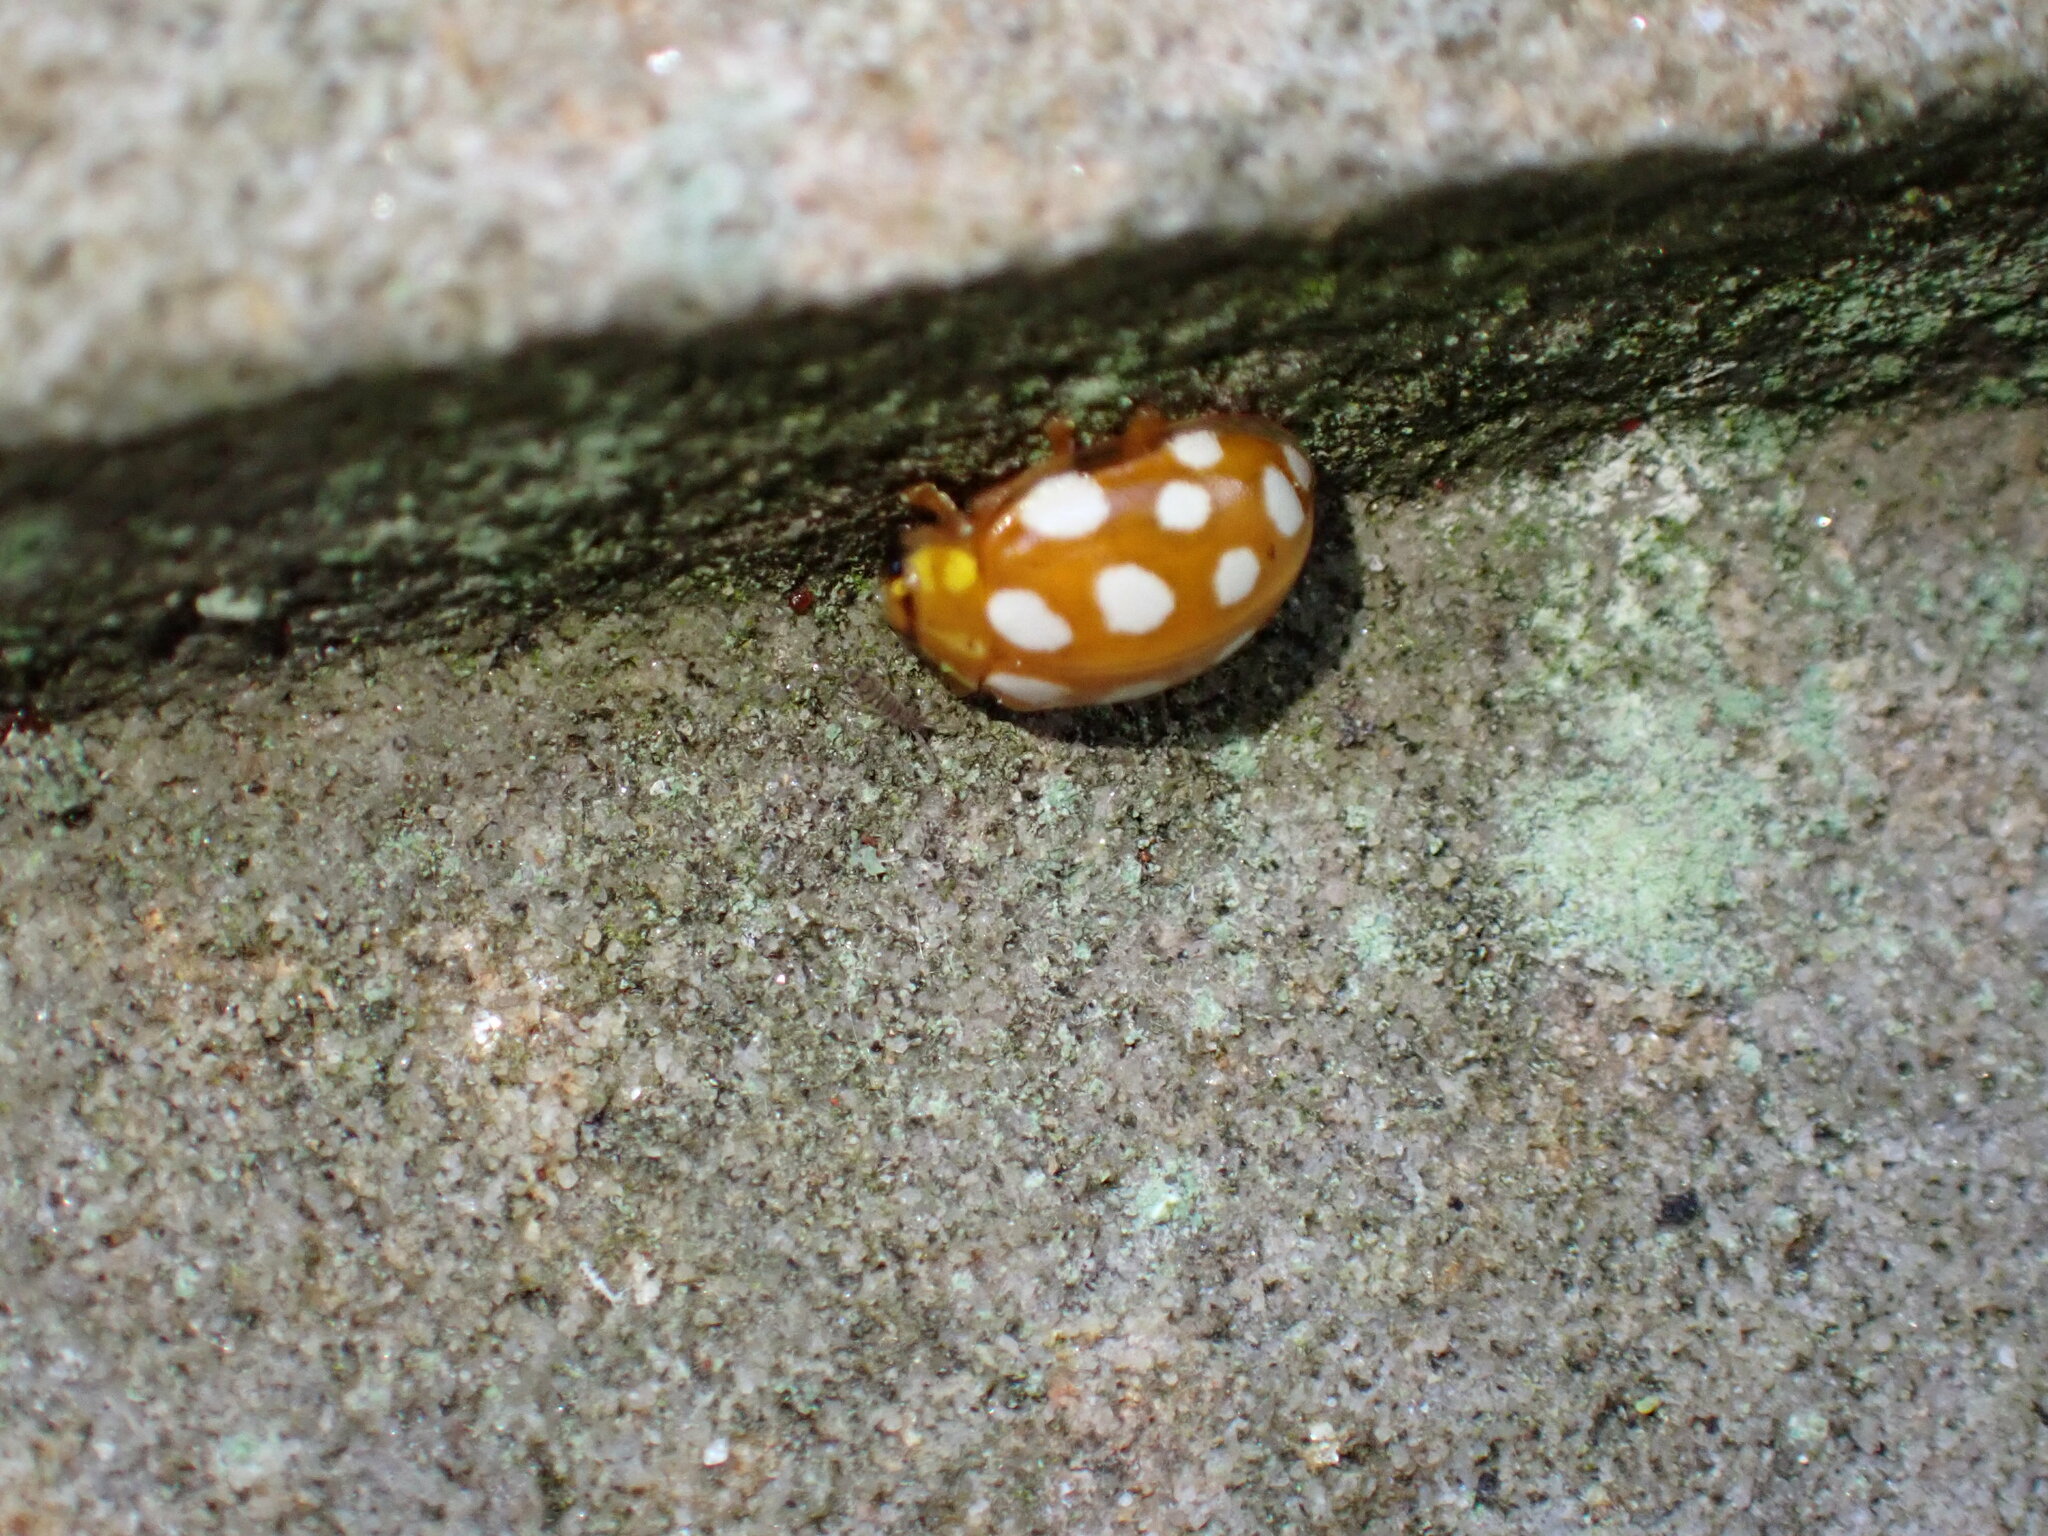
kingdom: Animalia
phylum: Arthropoda
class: Insecta
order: Coleoptera
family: Coccinellidae
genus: Halyzia
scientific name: Halyzia sedecimguttata
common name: Orange ladybird
